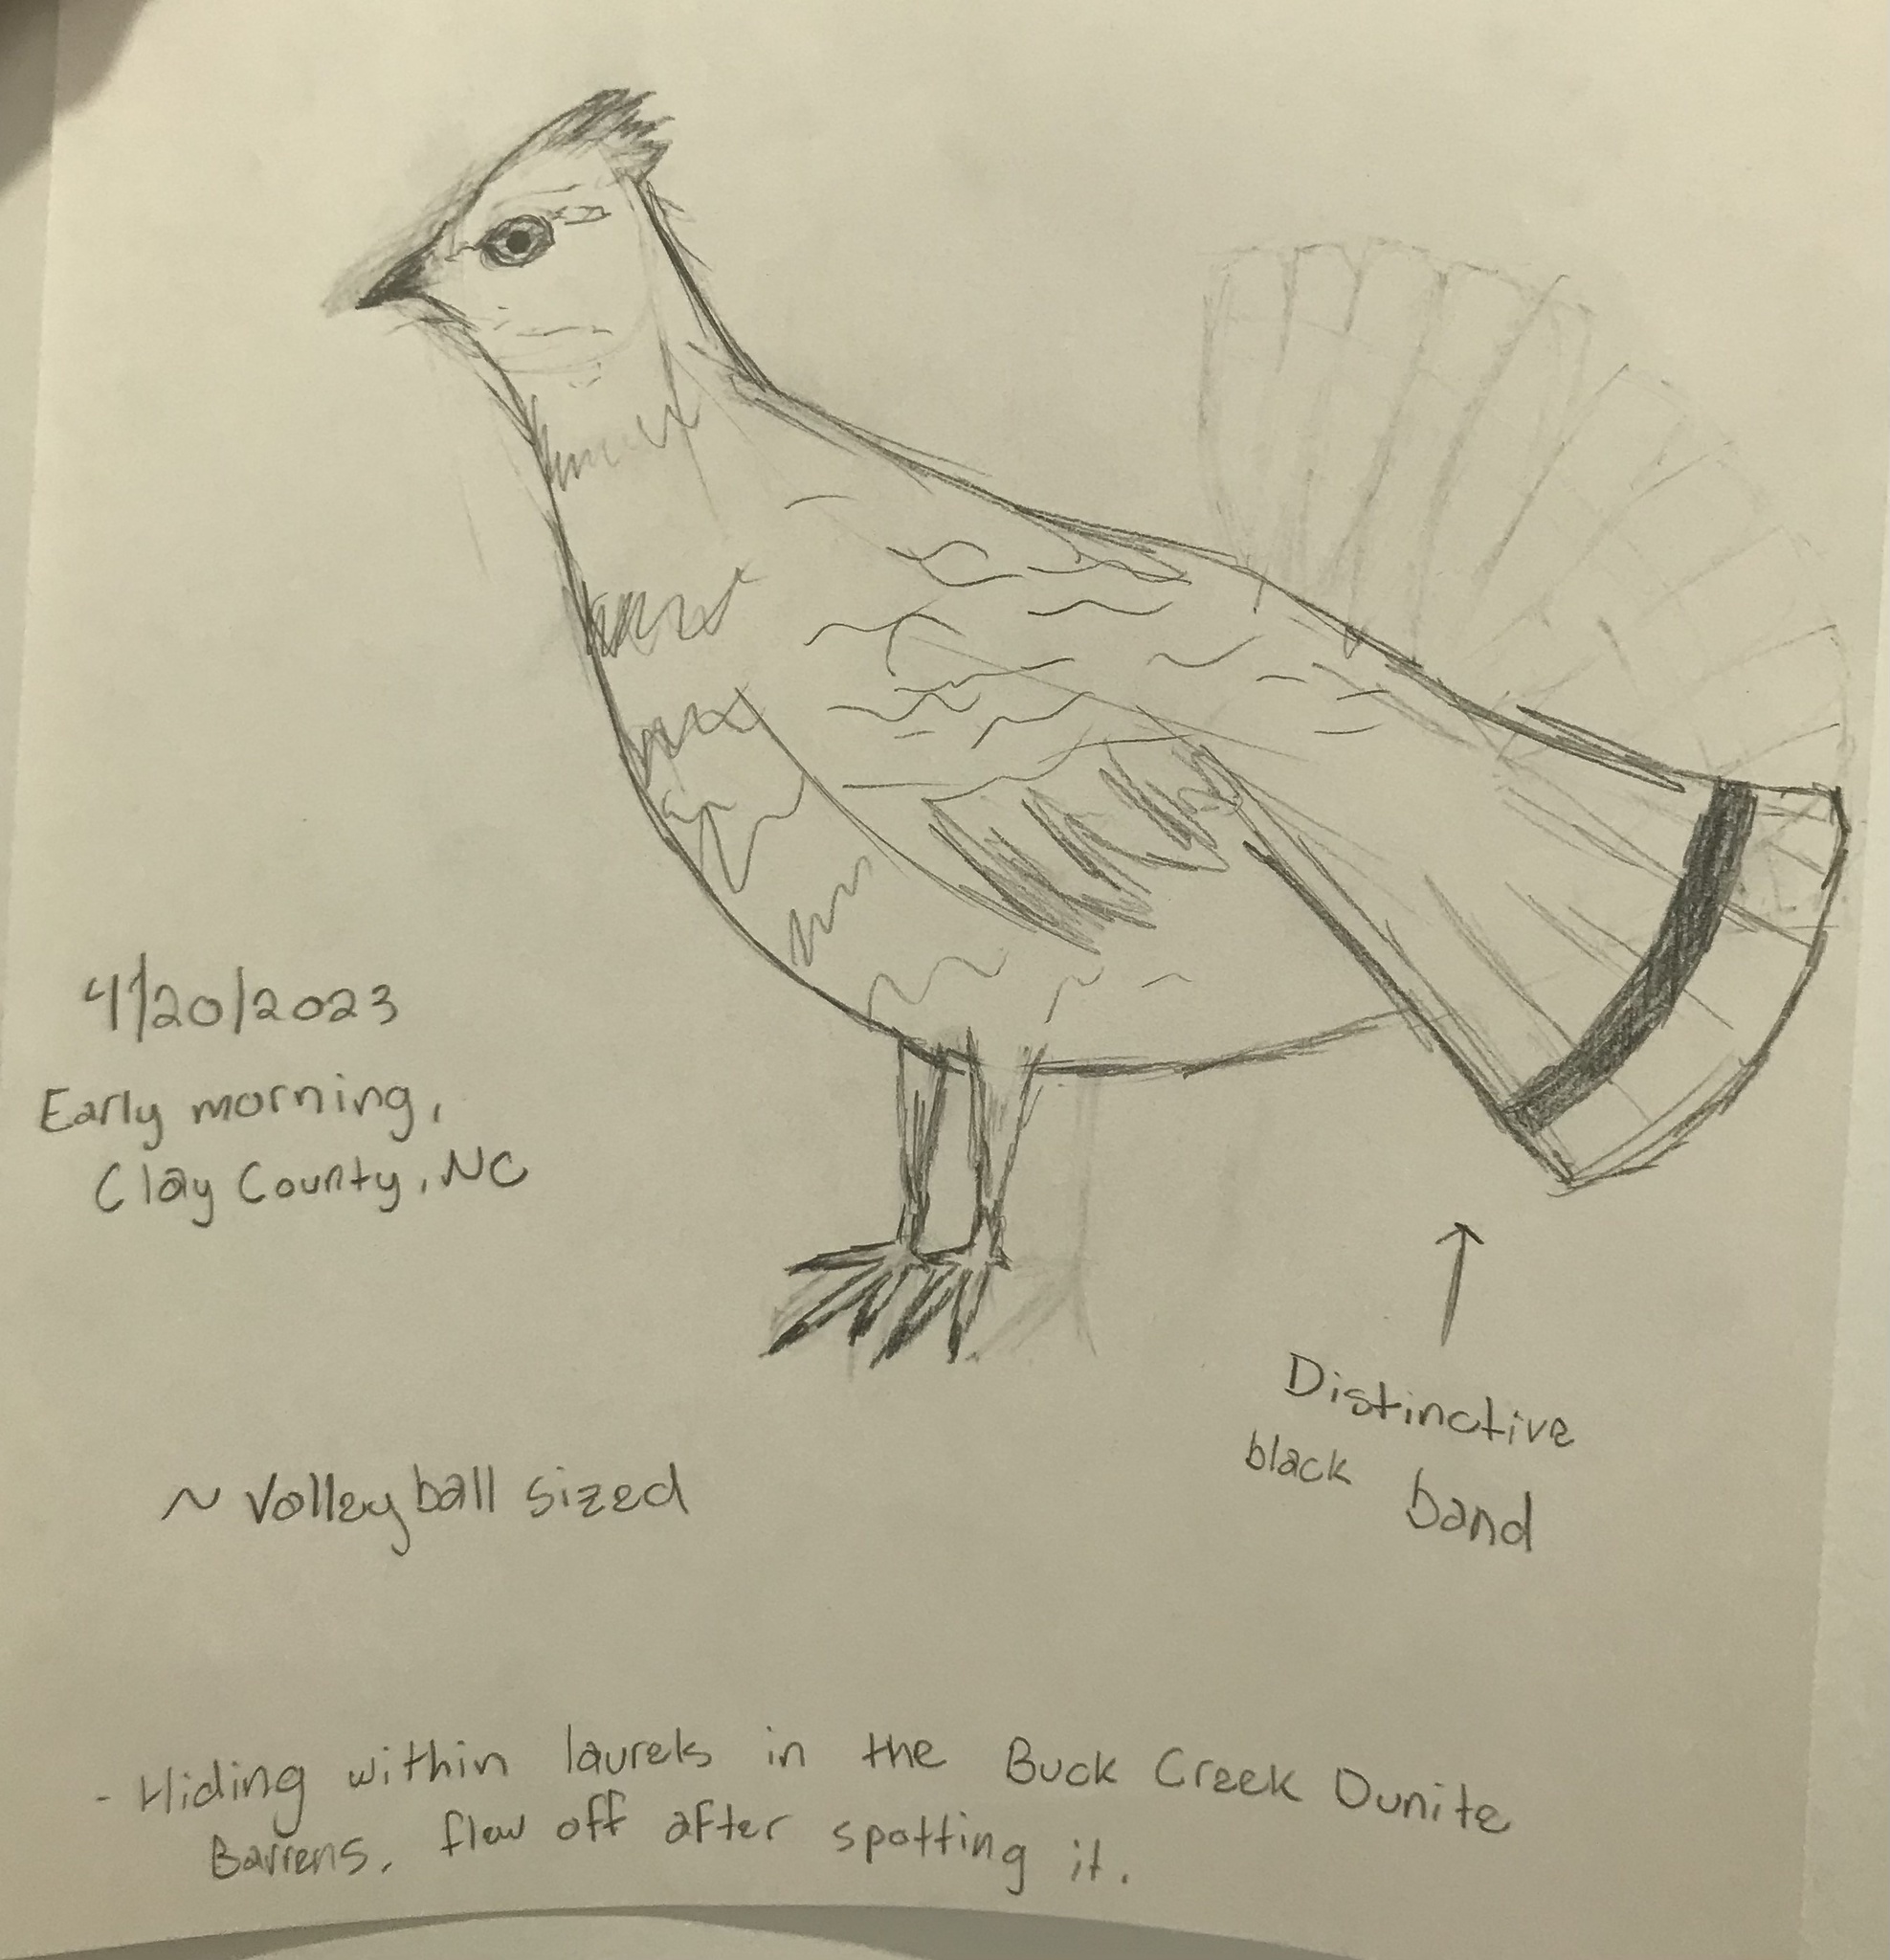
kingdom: Animalia
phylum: Chordata
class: Aves
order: Galliformes
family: Phasianidae
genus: Bonasa
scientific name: Bonasa umbellus
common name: Ruffed grouse
